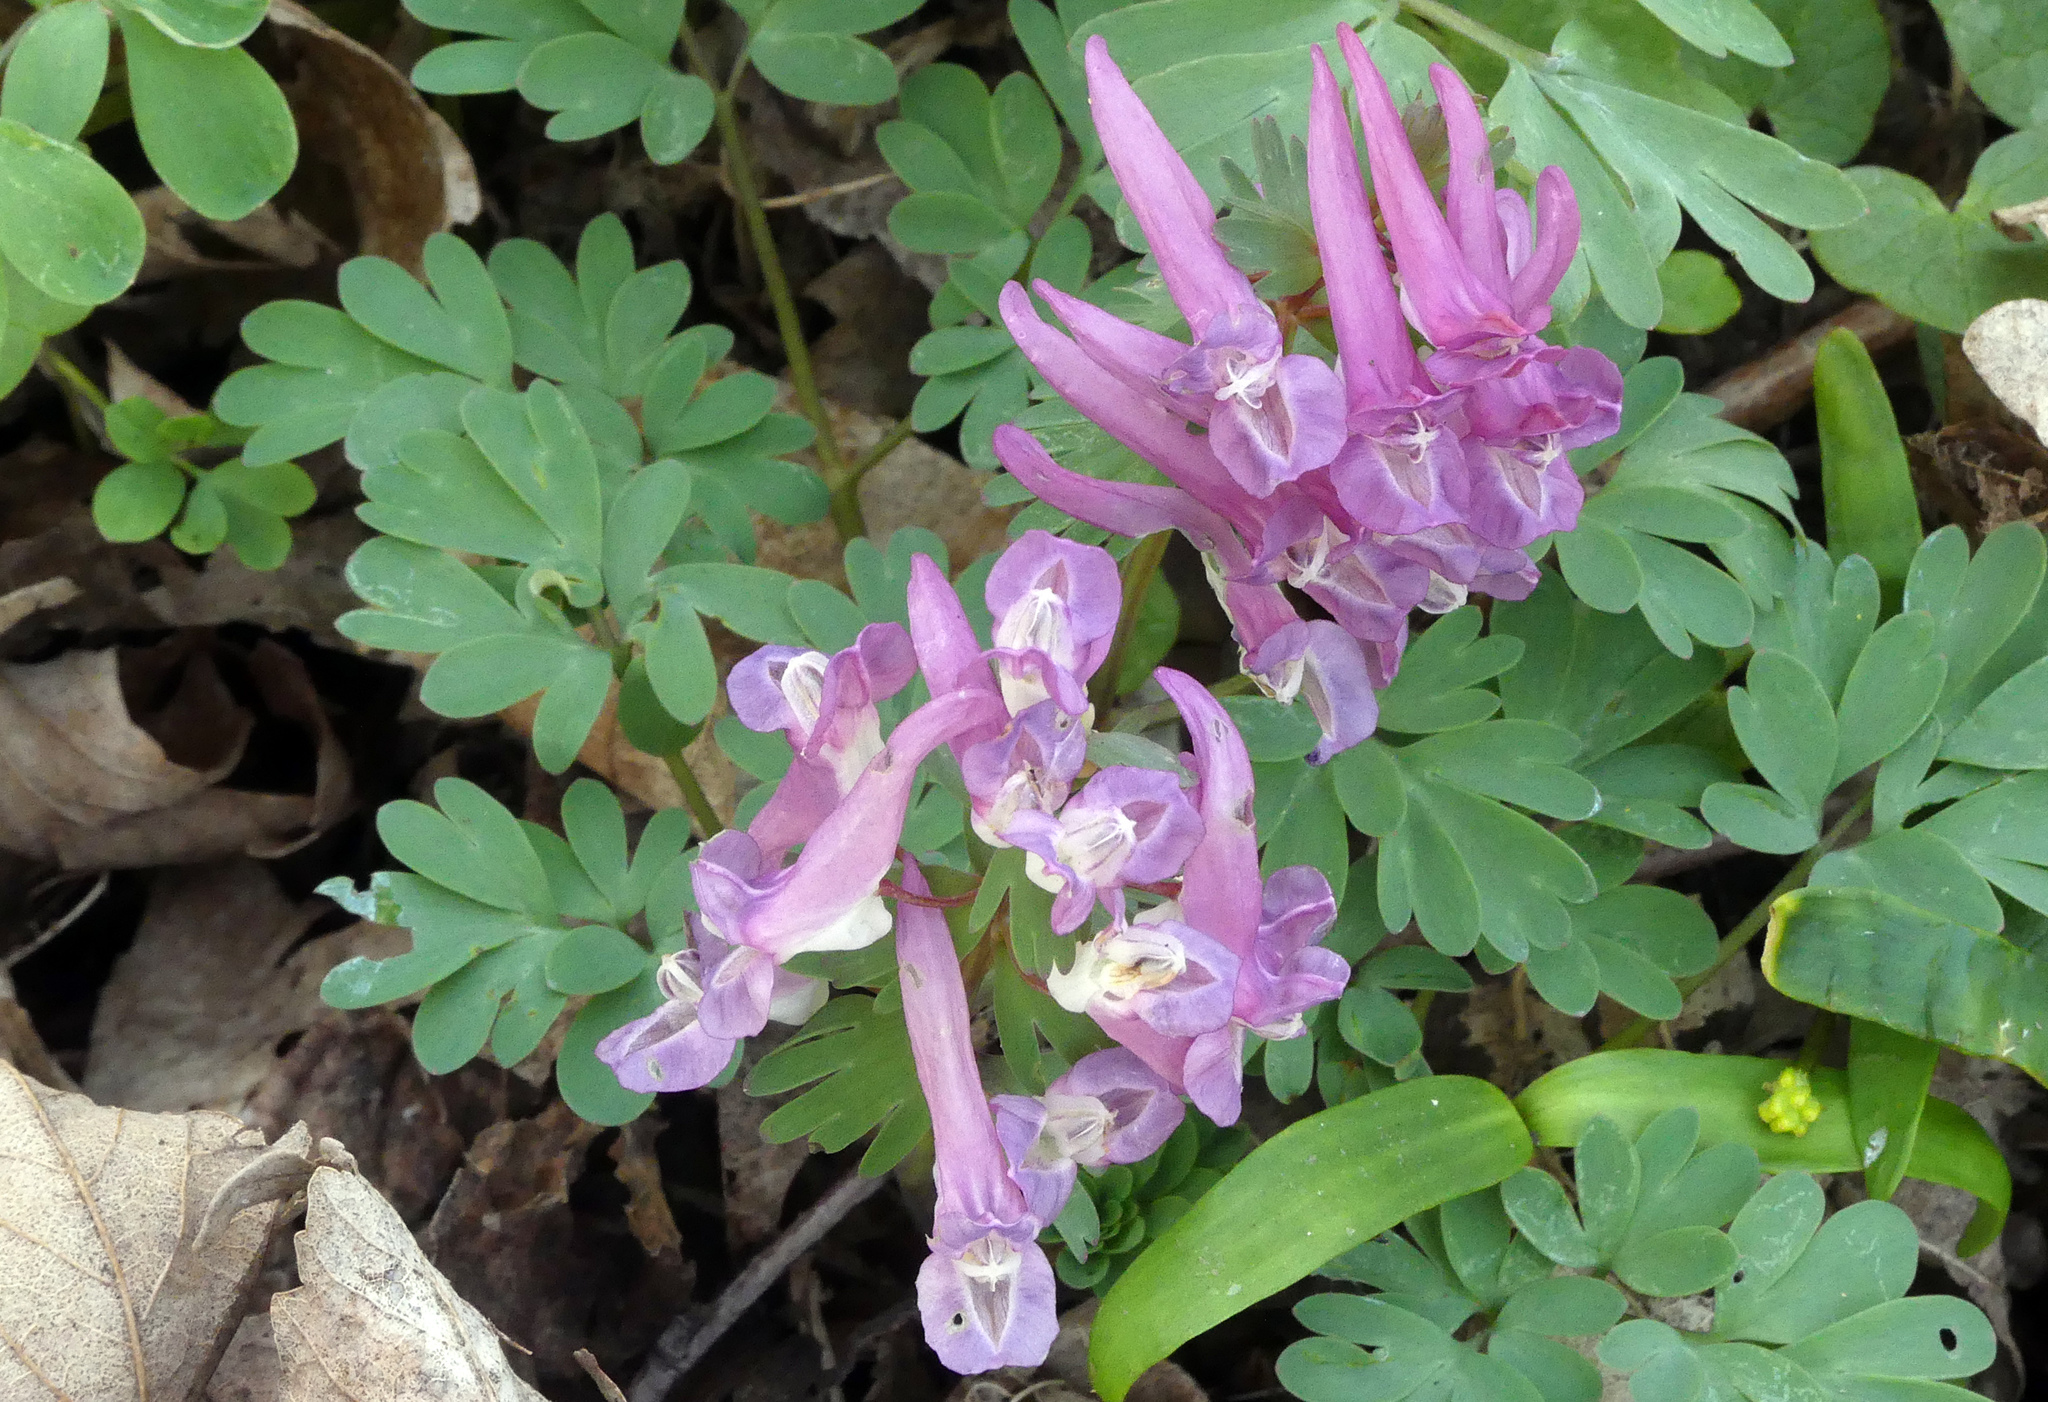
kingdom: Plantae
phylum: Tracheophyta
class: Magnoliopsida
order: Ranunculales
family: Papaveraceae
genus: Corydalis
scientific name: Corydalis solida
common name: Bird-in-a-bush
